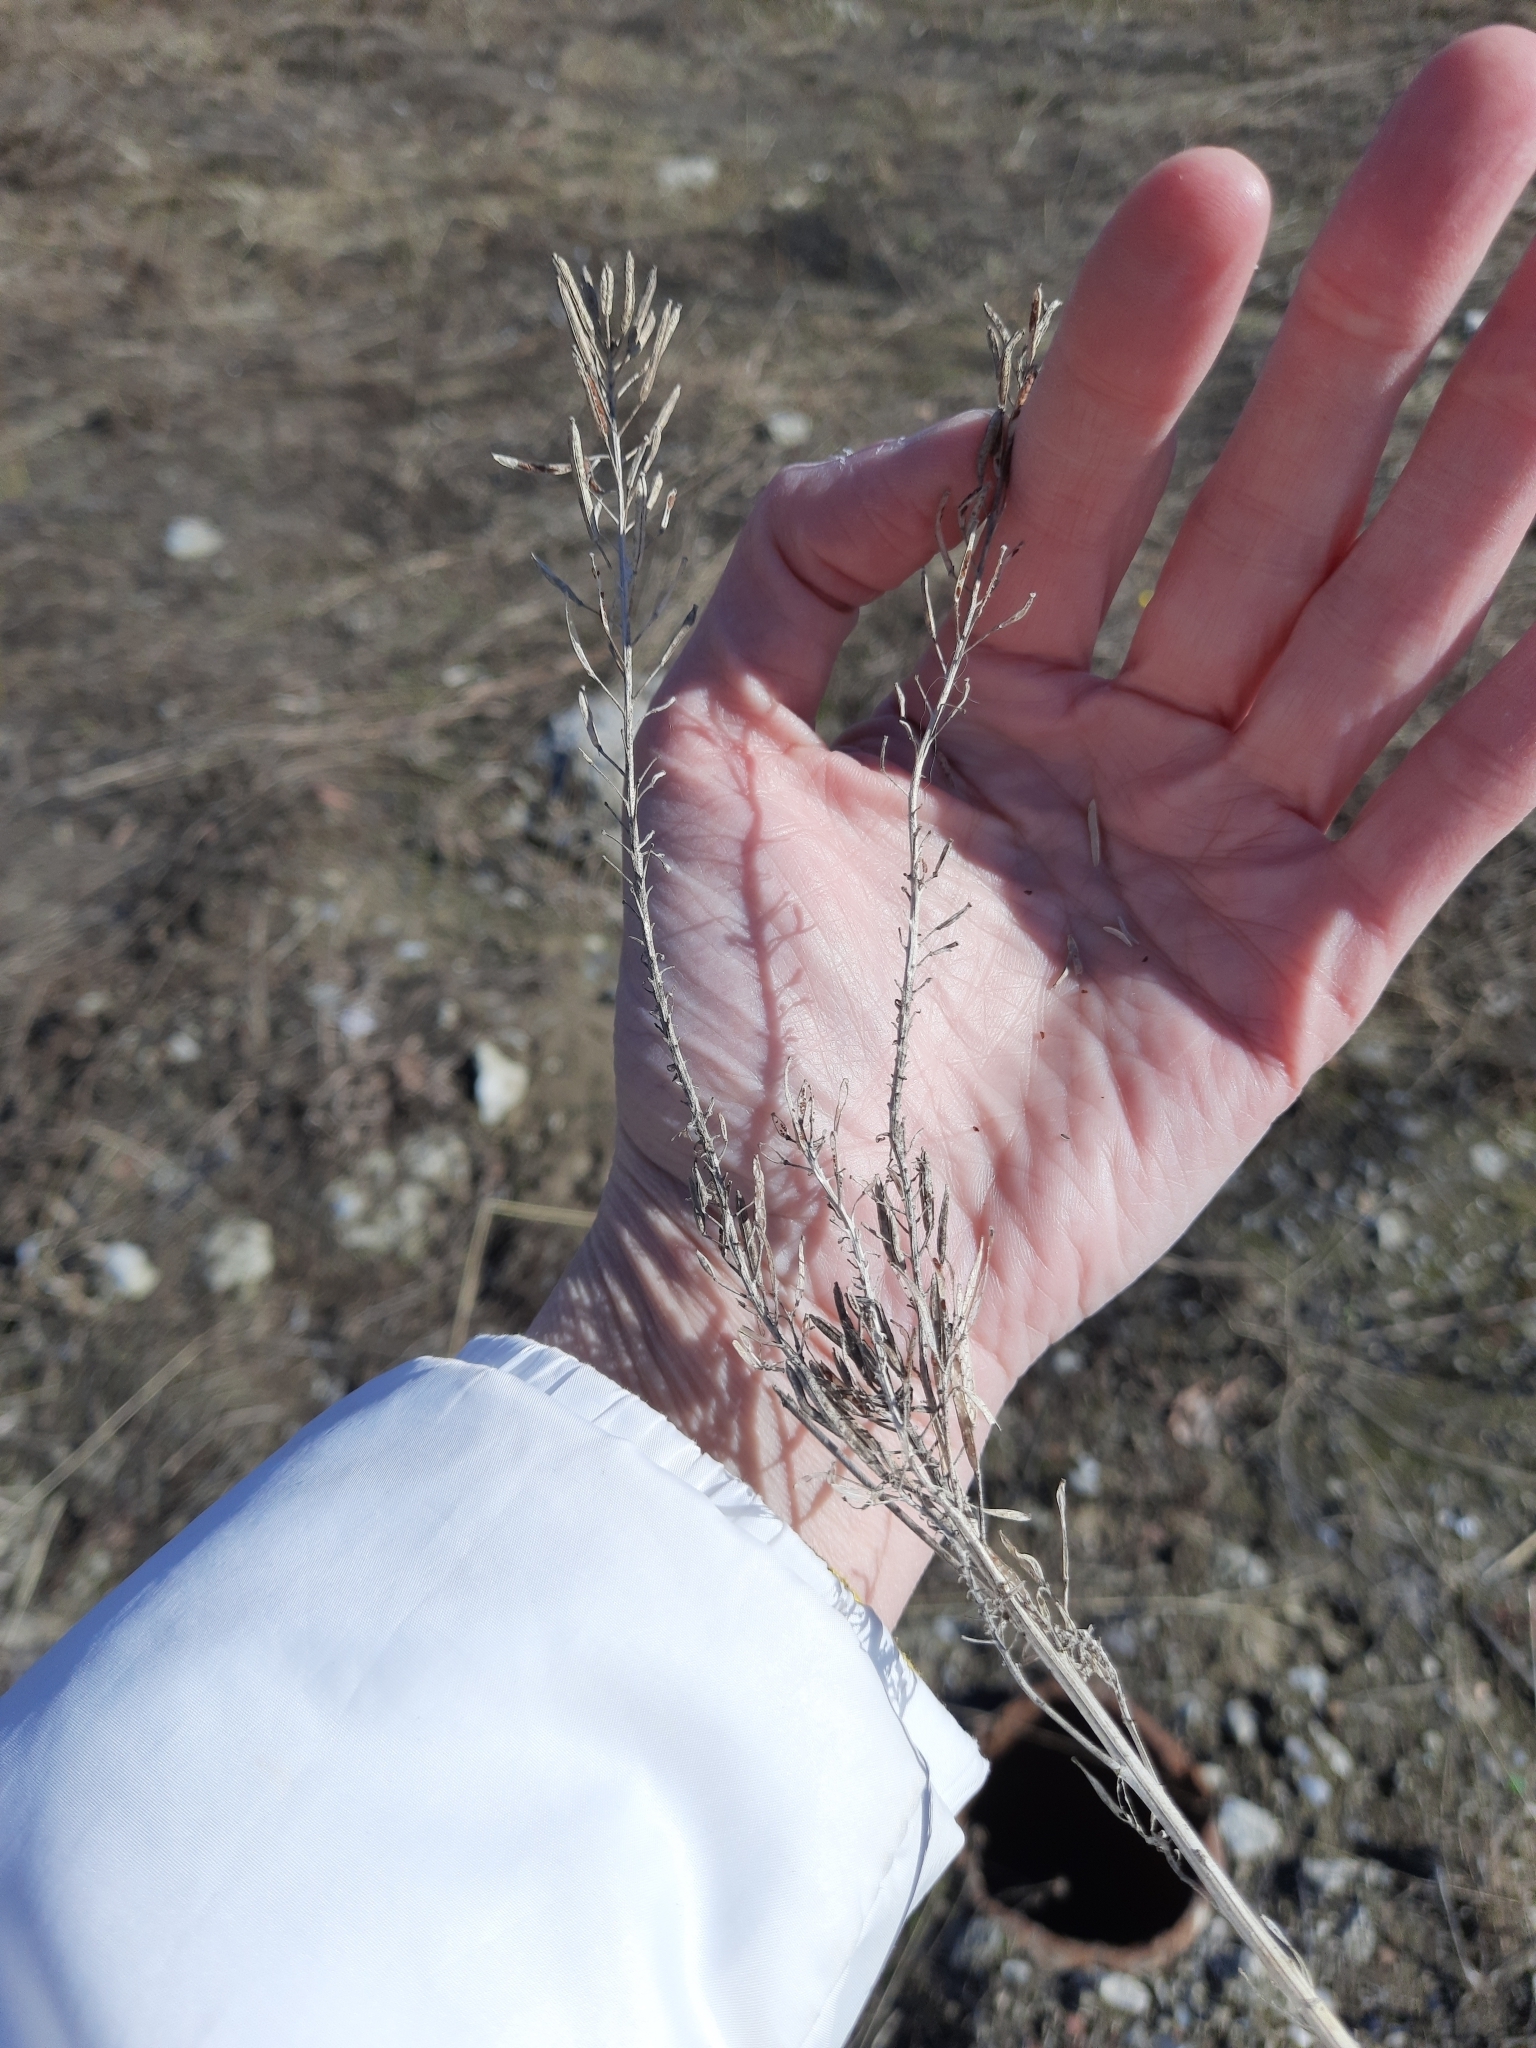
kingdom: Plantae
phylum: Tracheophyta
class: Magnoliopsida
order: Brassicales
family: Brassicaceae
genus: Erysimum
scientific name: Erysimum cheiranthoides
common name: Treacle mustard
